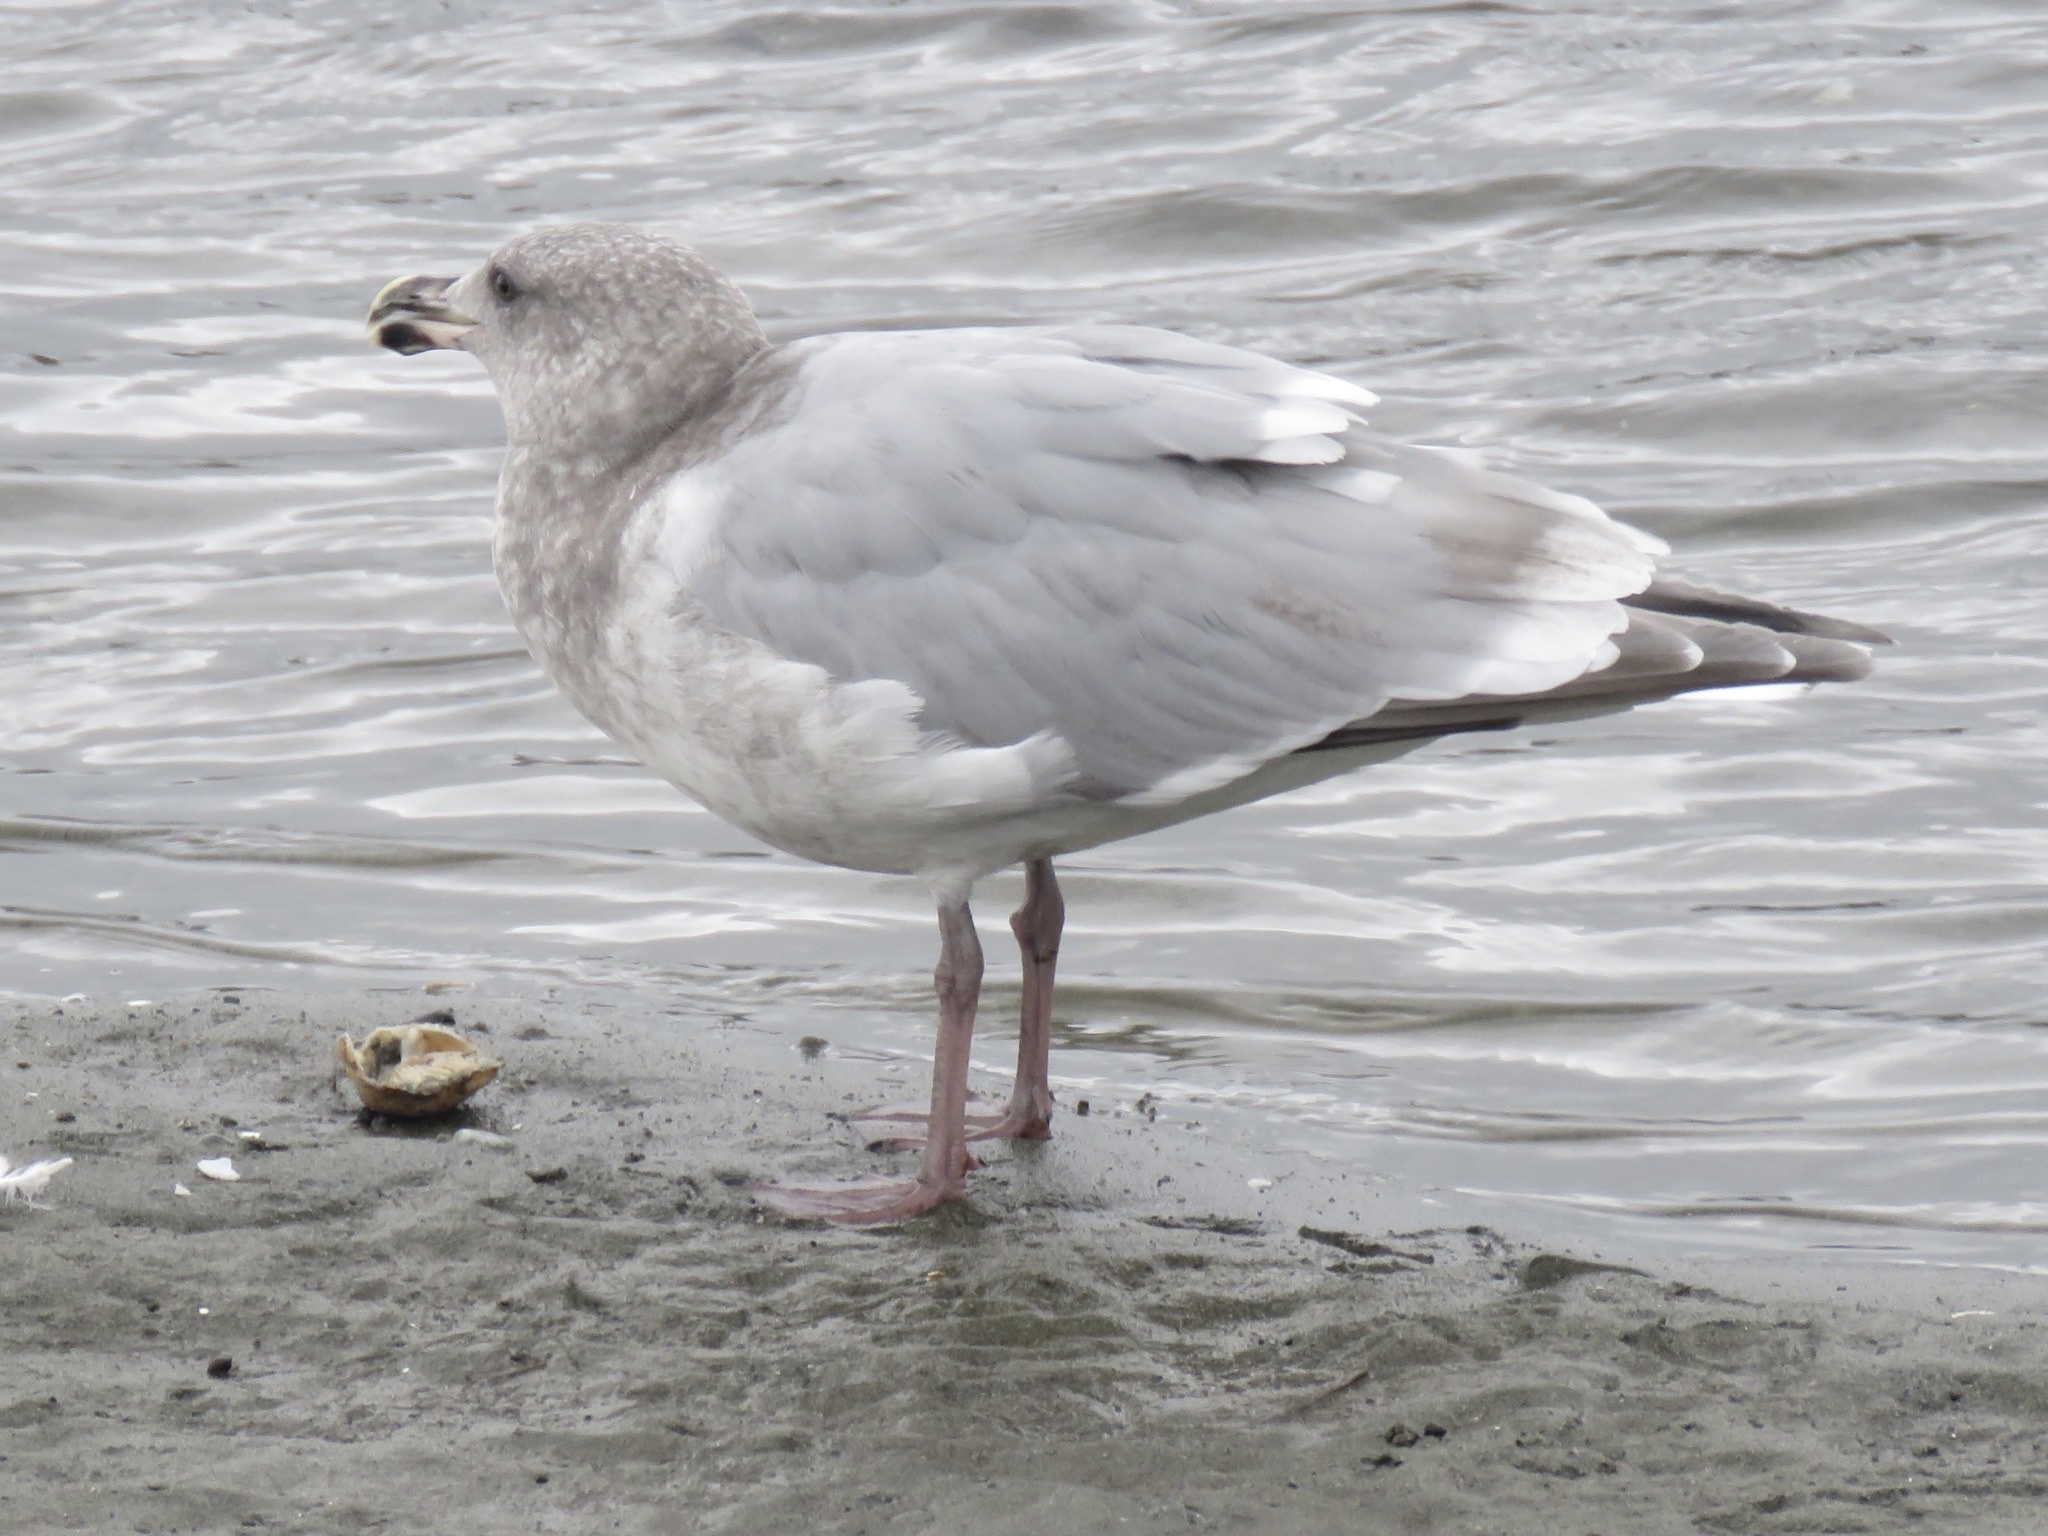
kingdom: Animalia
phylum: Chordata
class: Aves
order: Charadriiformes
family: Laridae
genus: Larus
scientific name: Larus glaucescens
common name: Glaucous-winged gull
